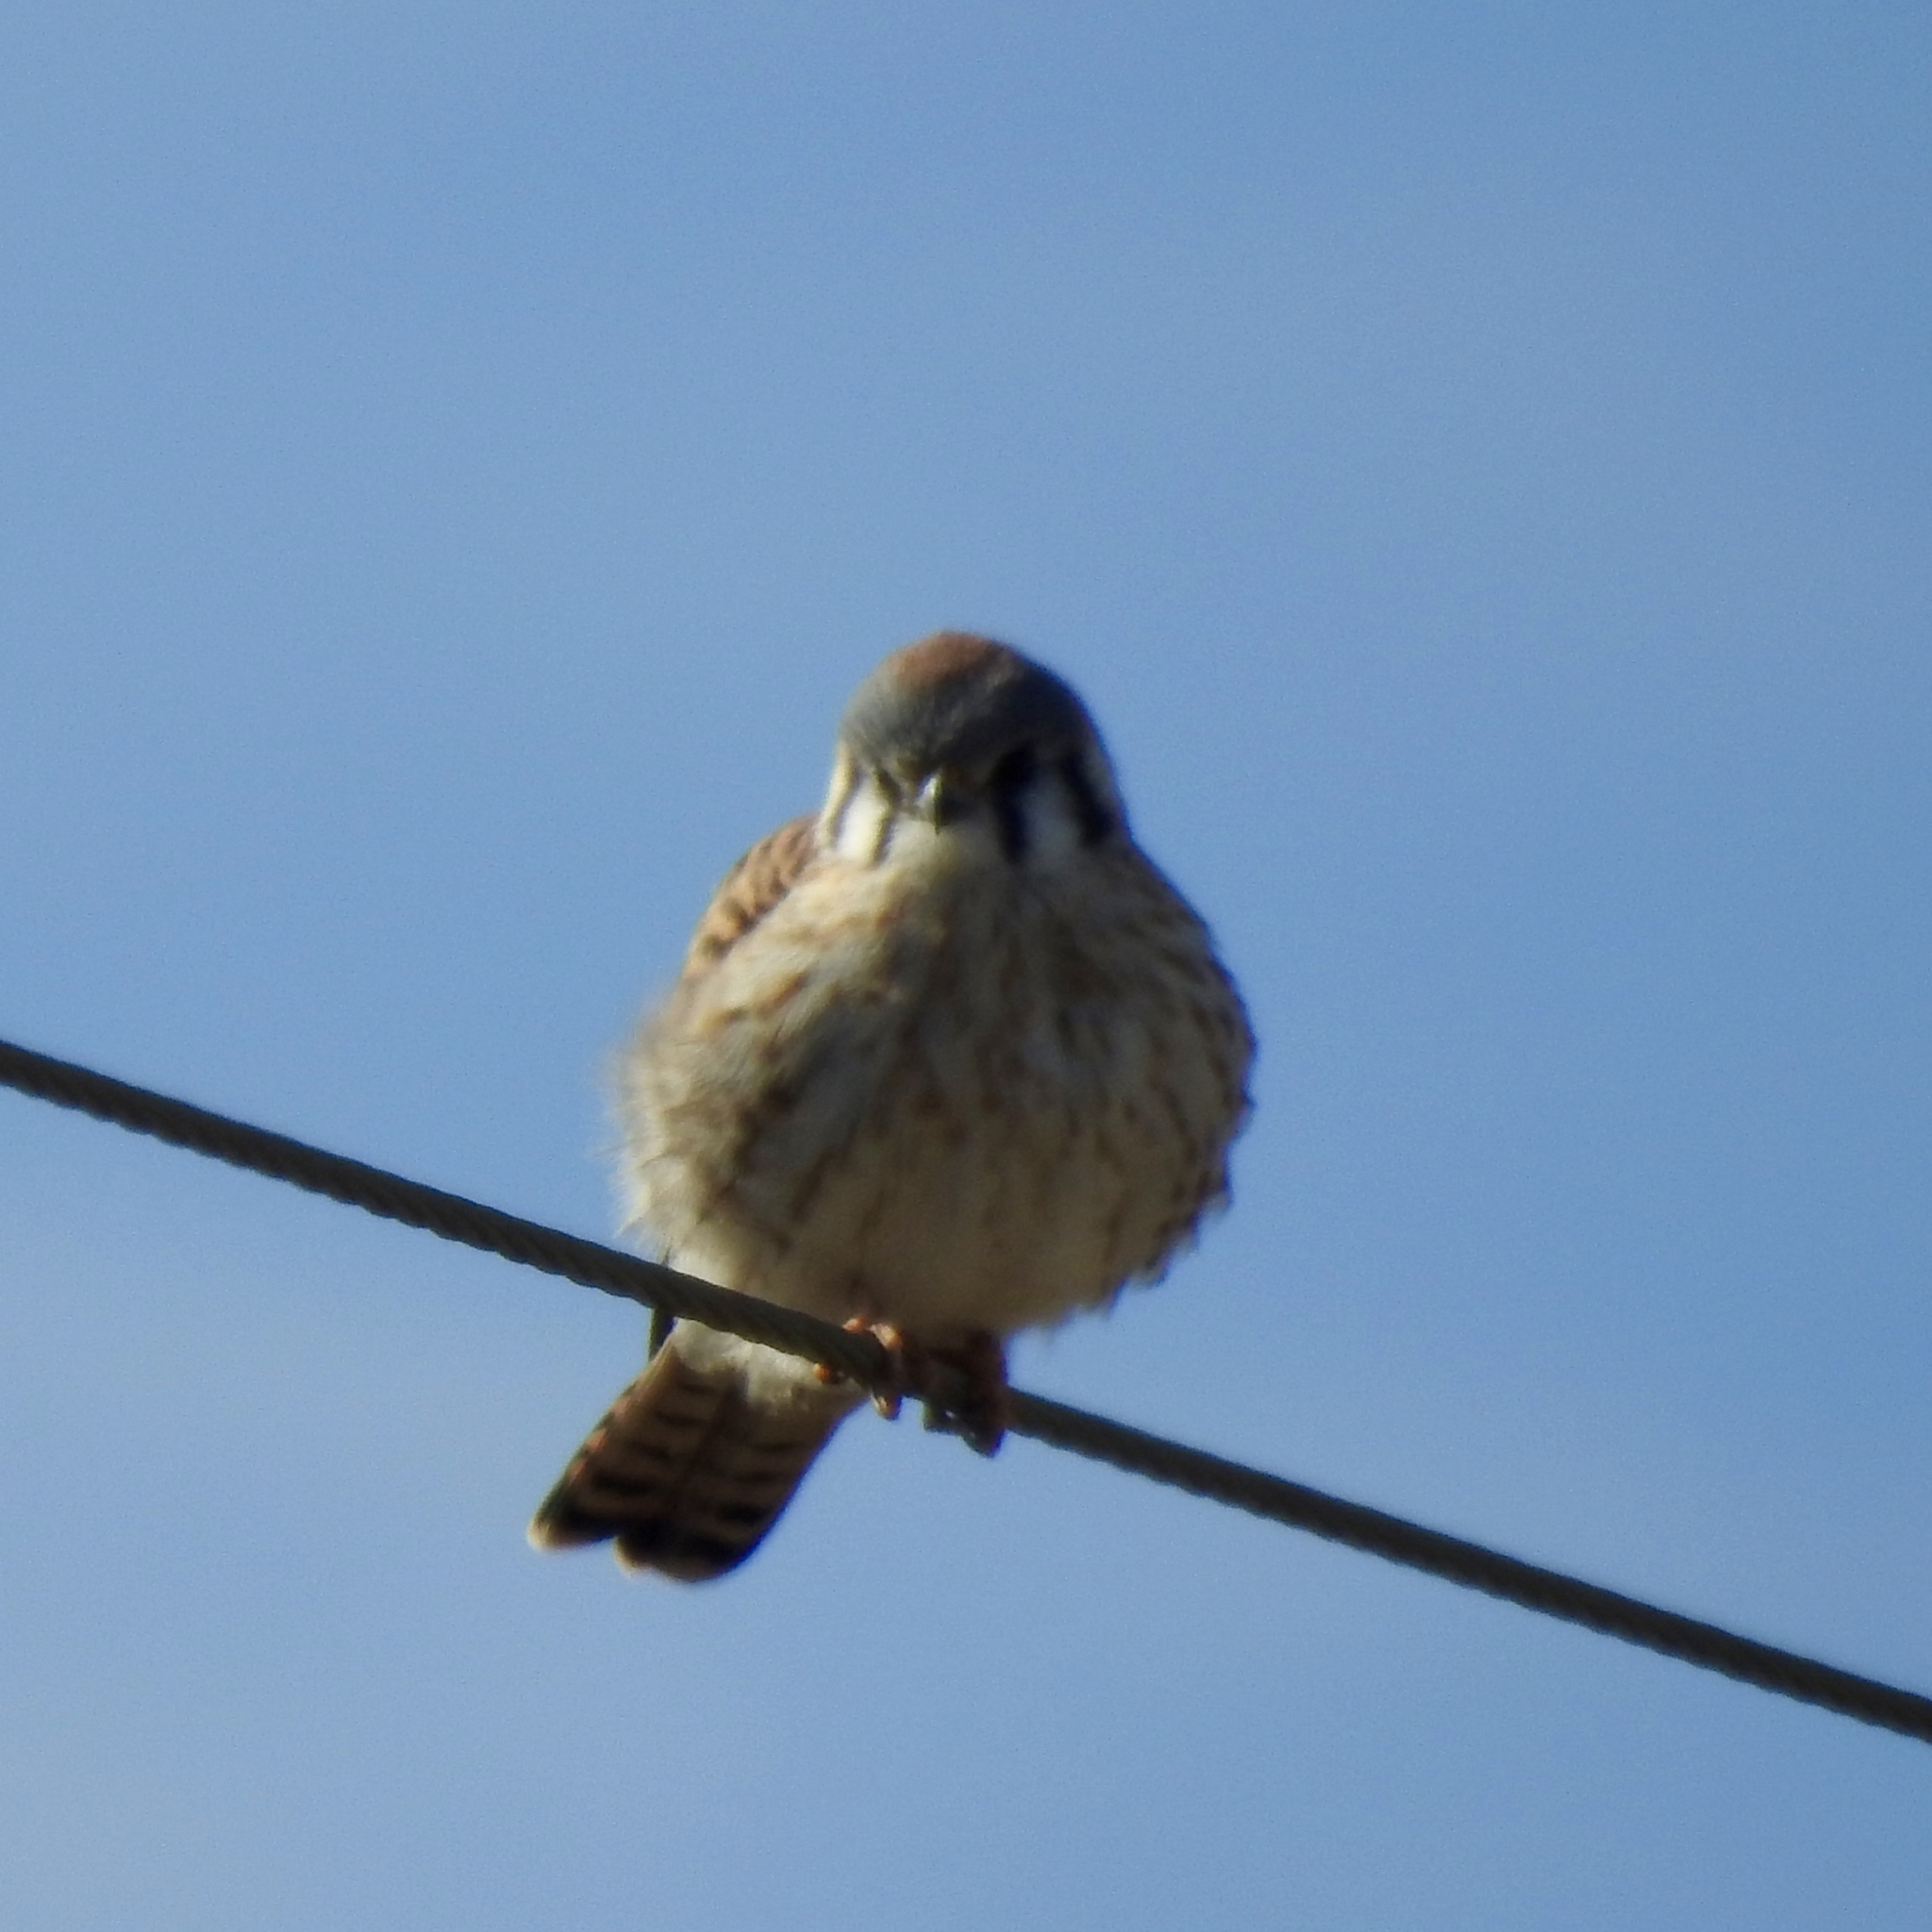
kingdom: Animalia
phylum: Chordata
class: Aves
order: Falconiformes
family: Falconidae
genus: Falco
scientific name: Falco sparverius
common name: American kestrel
